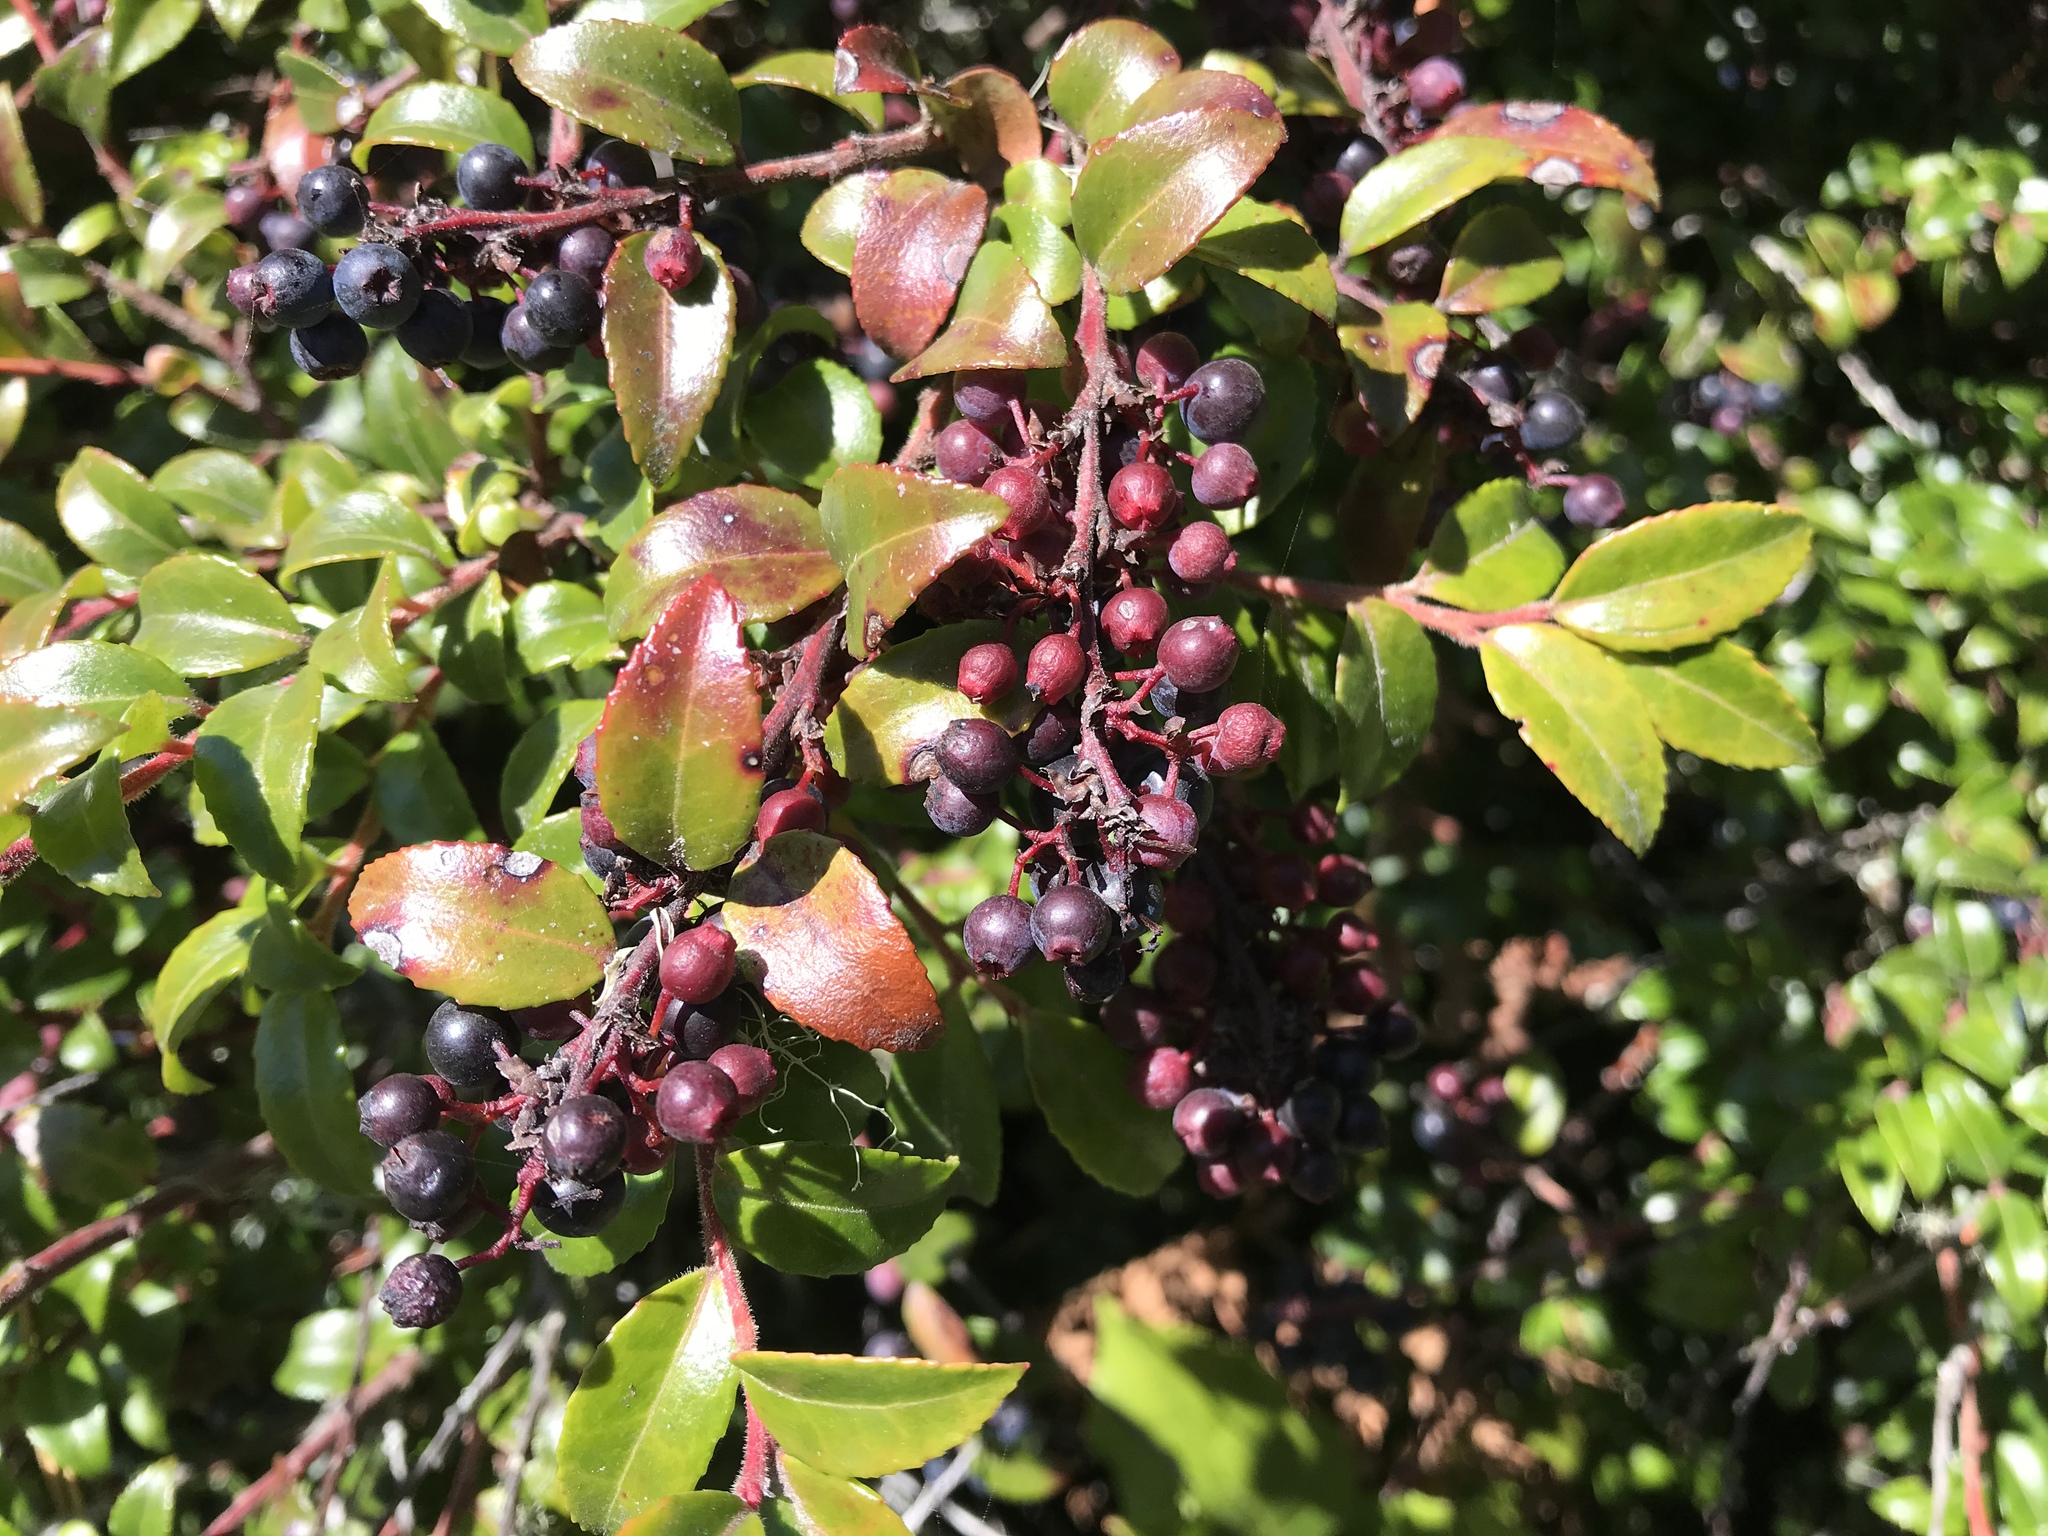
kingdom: Plantae
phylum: Tracheophyta
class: Magnoliopsida
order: Ericales
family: Ericaceae
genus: Vaccinium
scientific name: Vaccinium ovatum
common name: California-huckleberry
